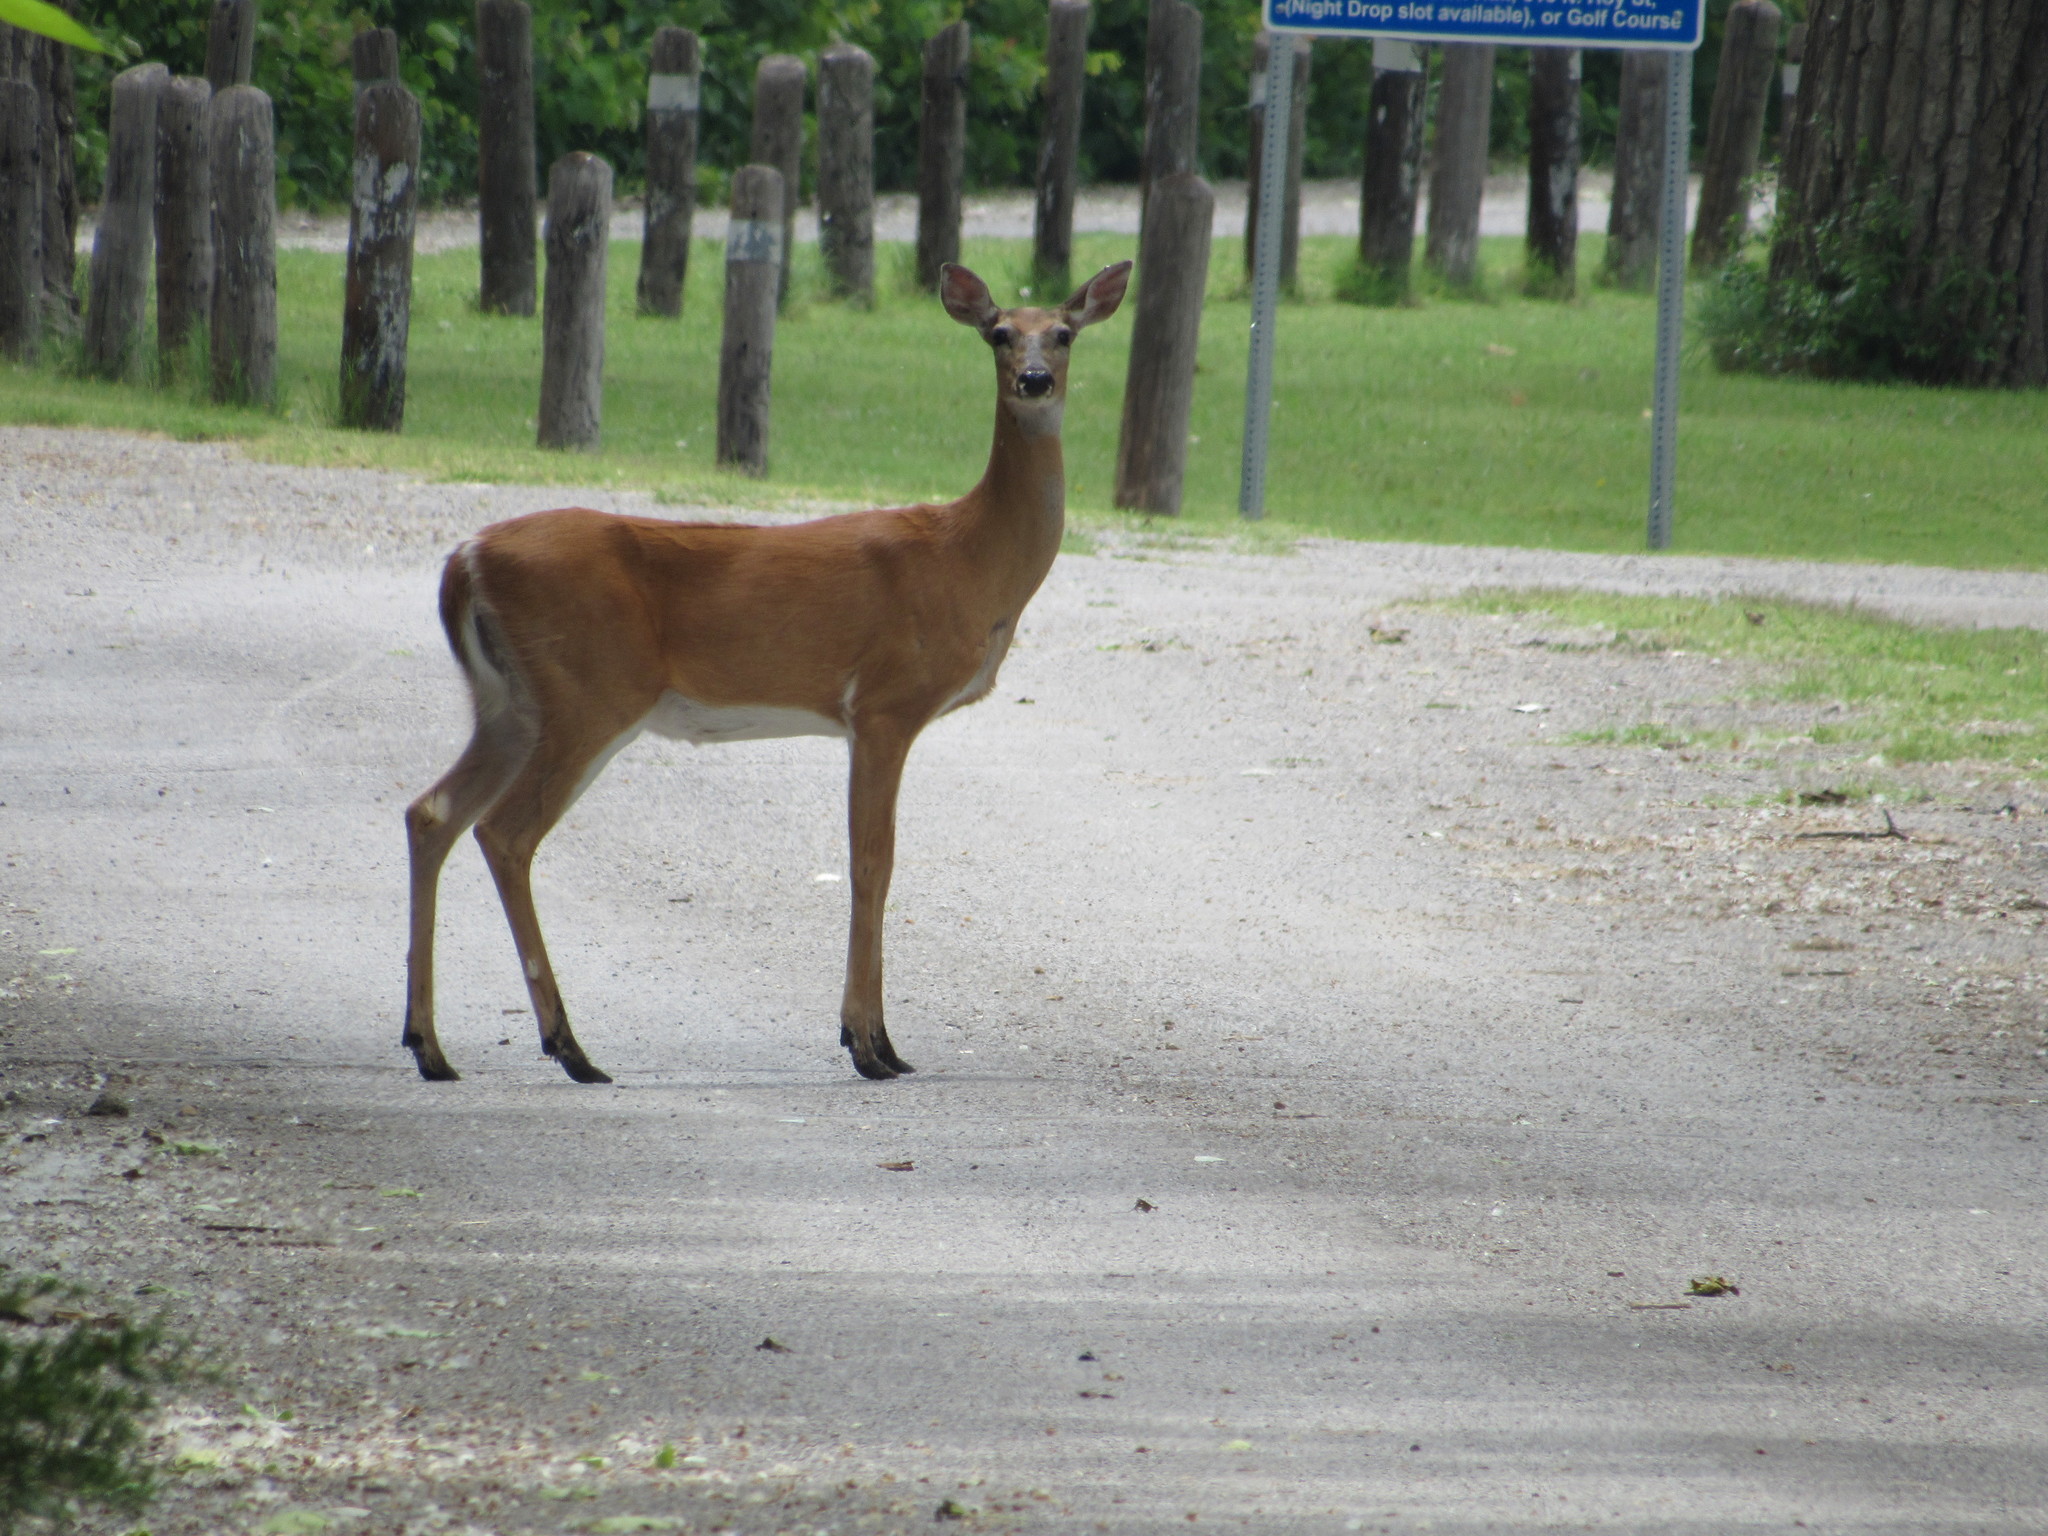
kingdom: Animalia
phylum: Chordata
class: Mammalia
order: Artiodactyla
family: Cervidae
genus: Odocoileus
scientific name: Odocoileus virginianus
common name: White-tailed deer
